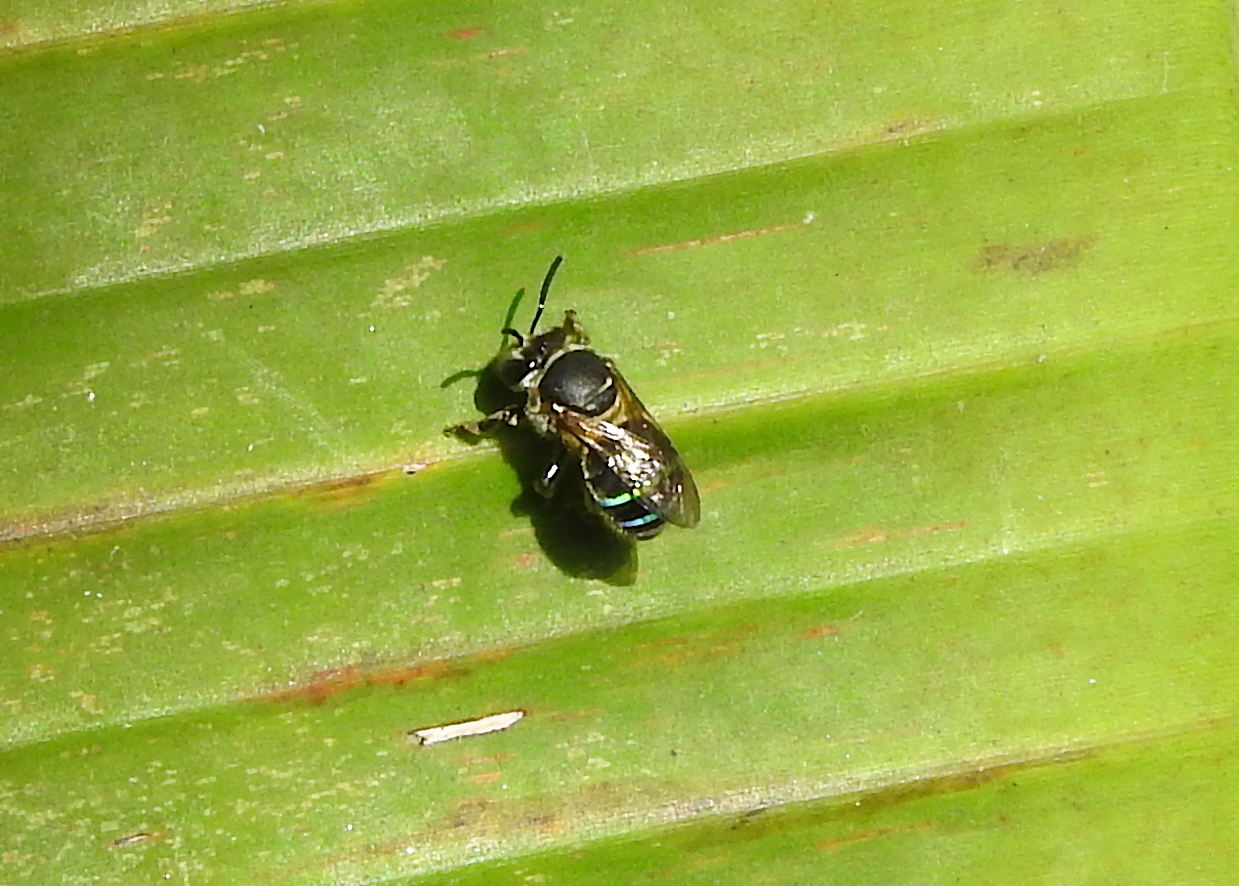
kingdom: Animalia
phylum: Arthropoda
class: Insecta
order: Hymenoptera
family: Halictidae
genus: Nomia
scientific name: Nomia iridescens
